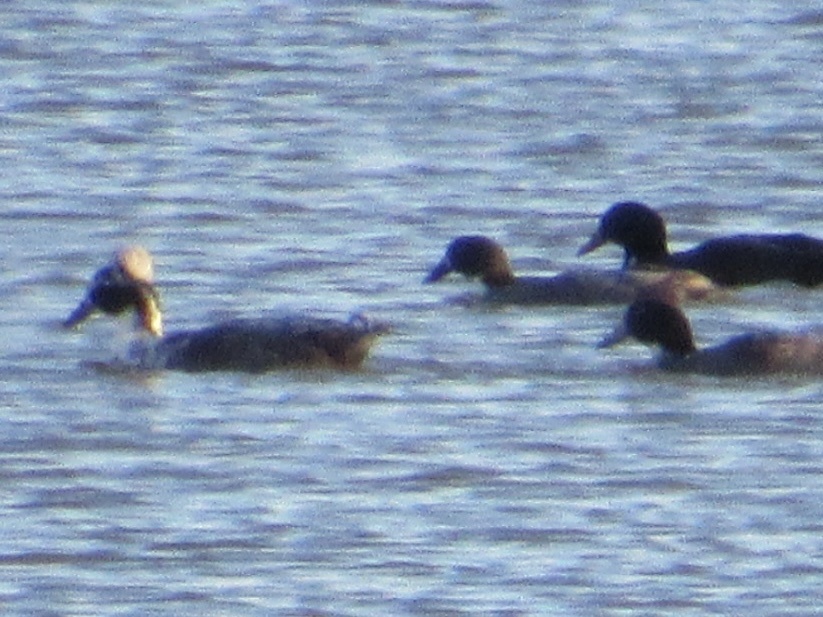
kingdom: Animalia
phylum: Chordata
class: Aves
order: Anseriformes
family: Anatidae
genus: Anas
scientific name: Anas platyrhynchos
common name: Mallard
